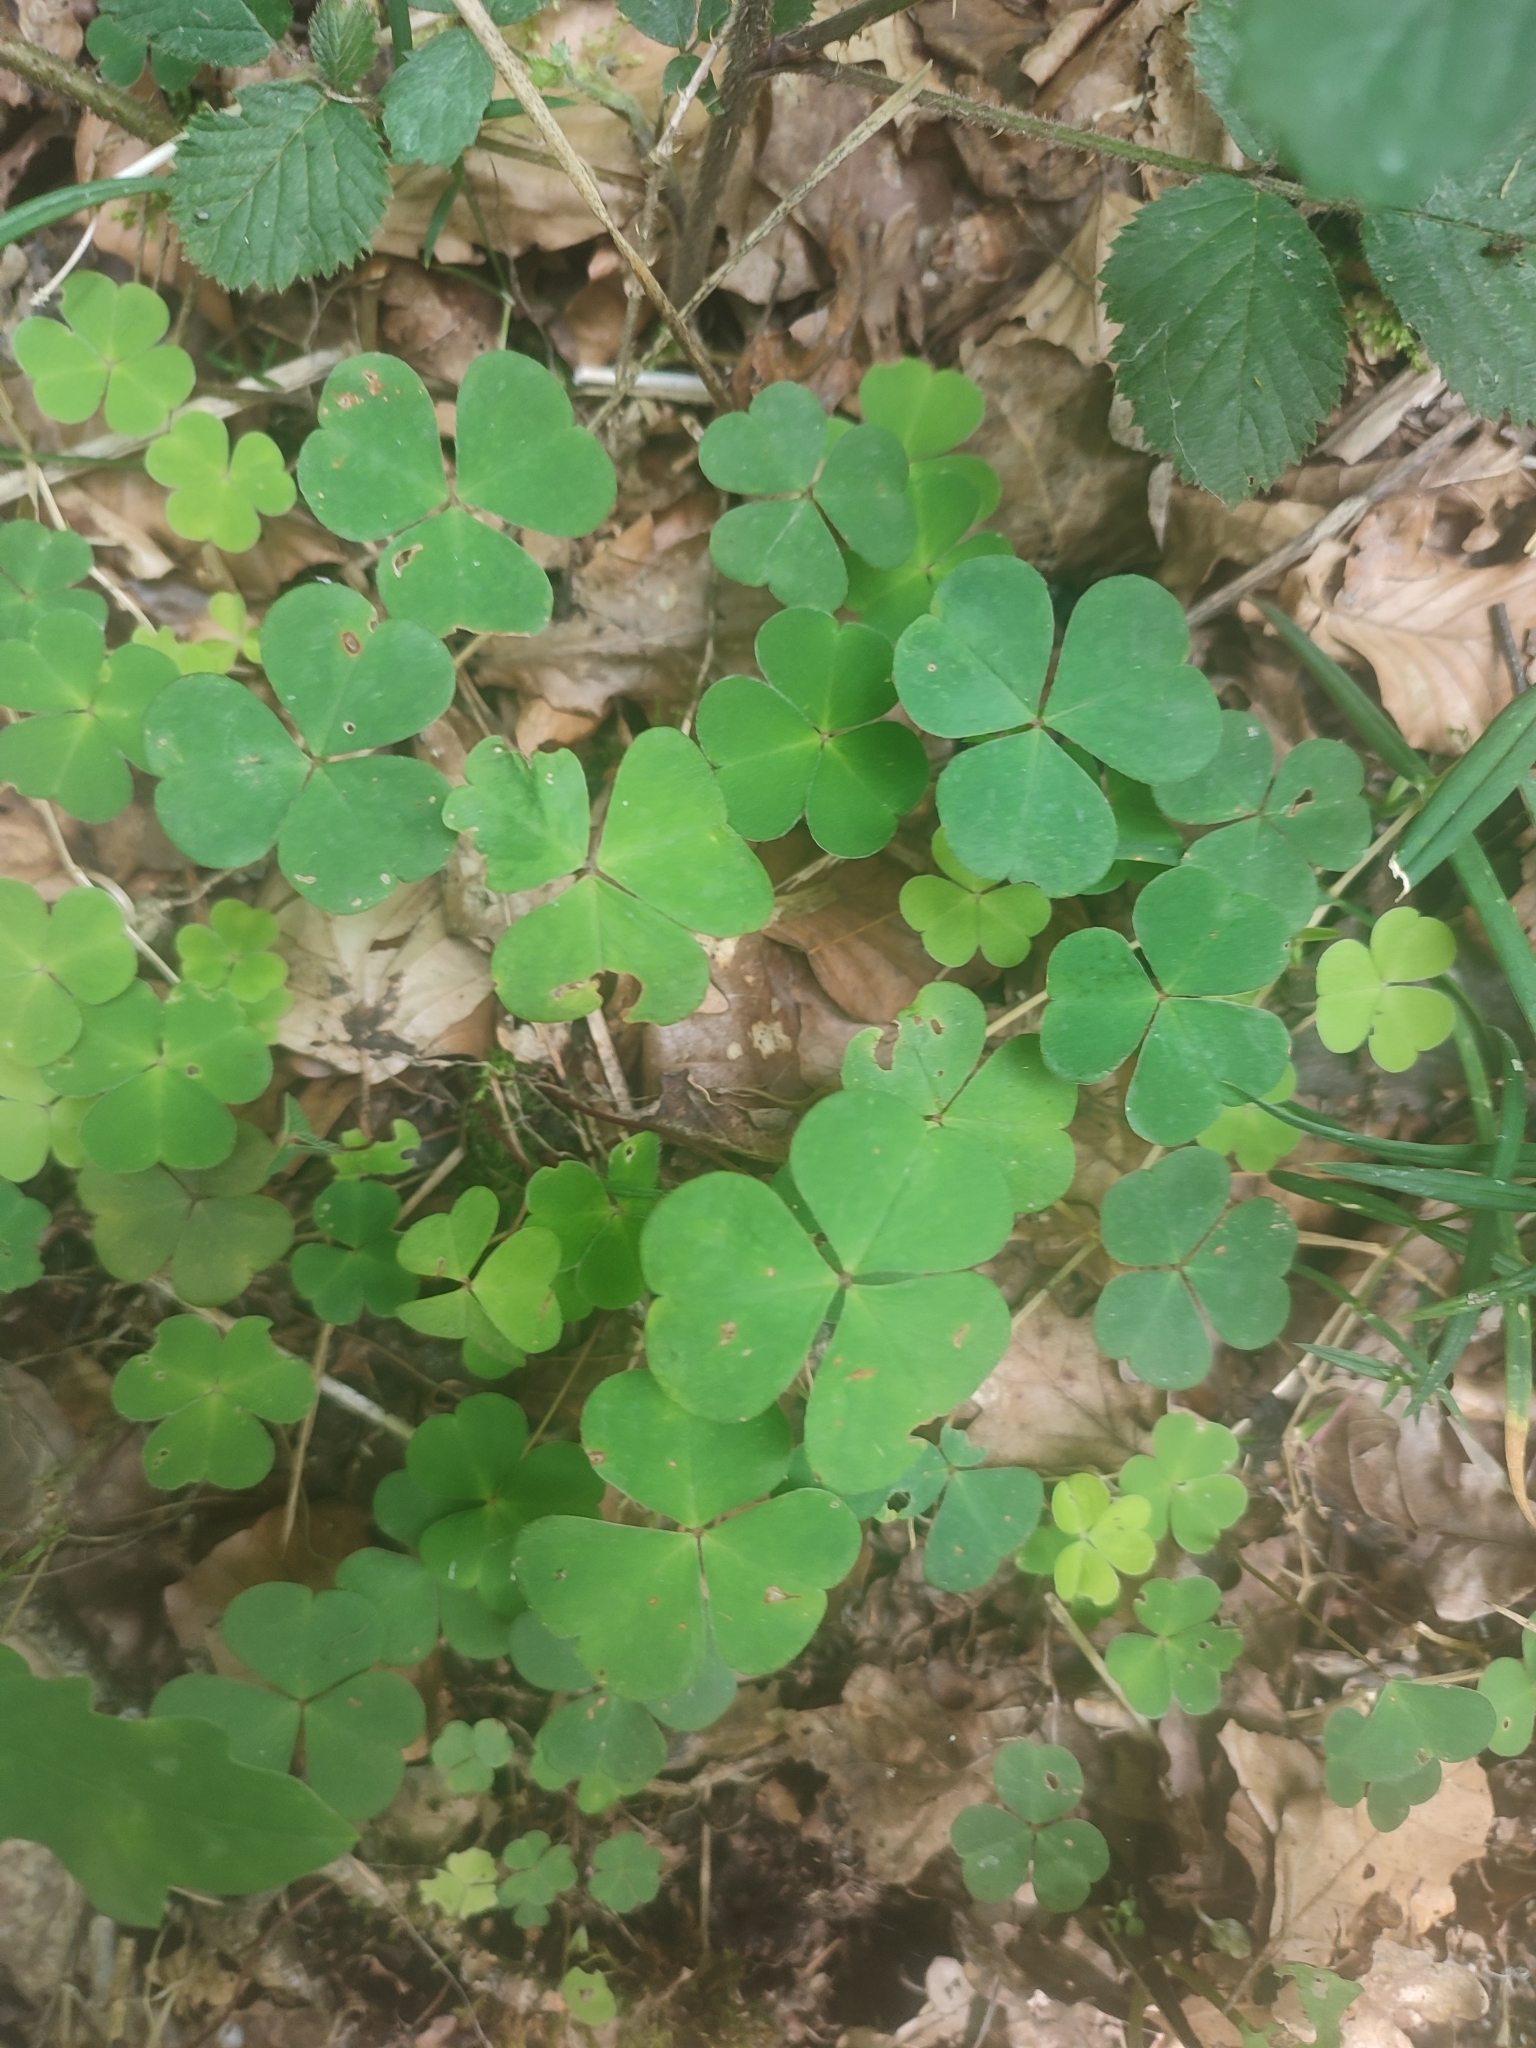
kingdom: Plantae
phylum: Tracheophyta
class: Magnoliopsida
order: Oxalidales
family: Oxalidaceae
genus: Oxalis
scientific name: Oxalis acetosella
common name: Wood-sorrel
